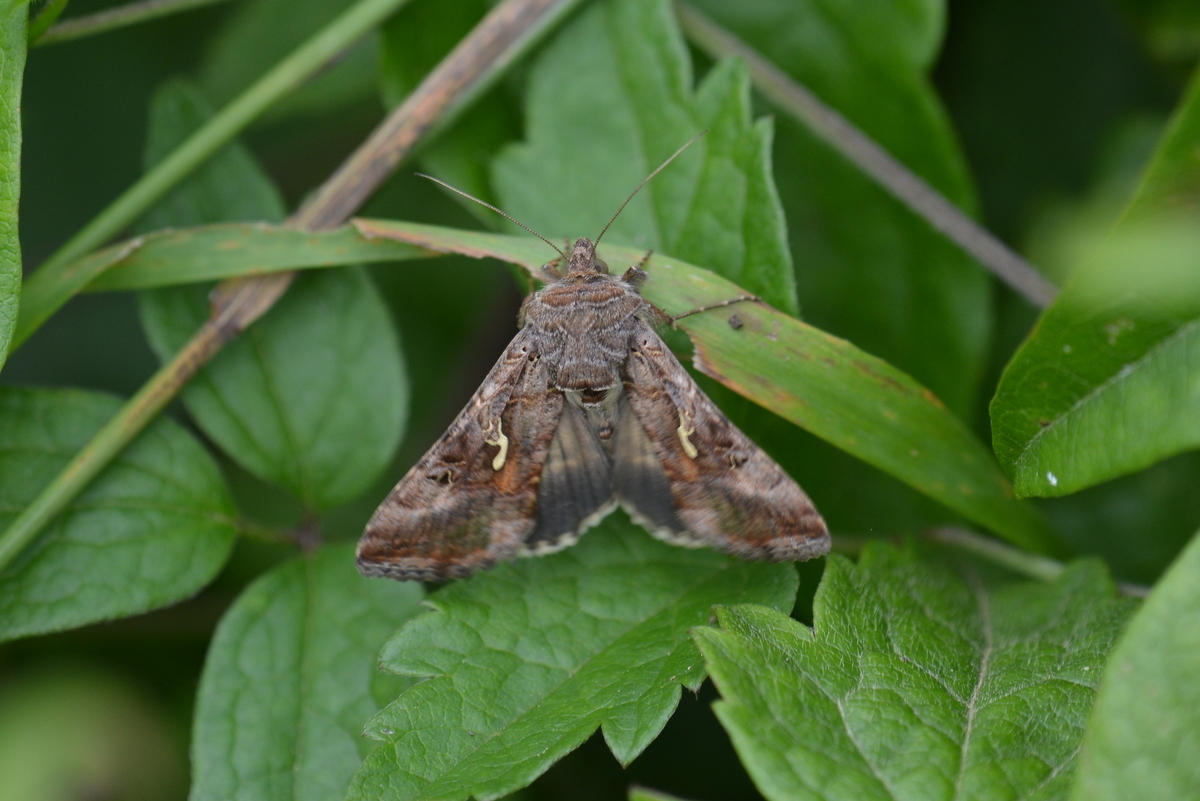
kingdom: Animalia
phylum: Arthropoda
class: Insecta
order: Lepidoptera
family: Noctuidae
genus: Autographa
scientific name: Autographa gamma
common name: Silver y
